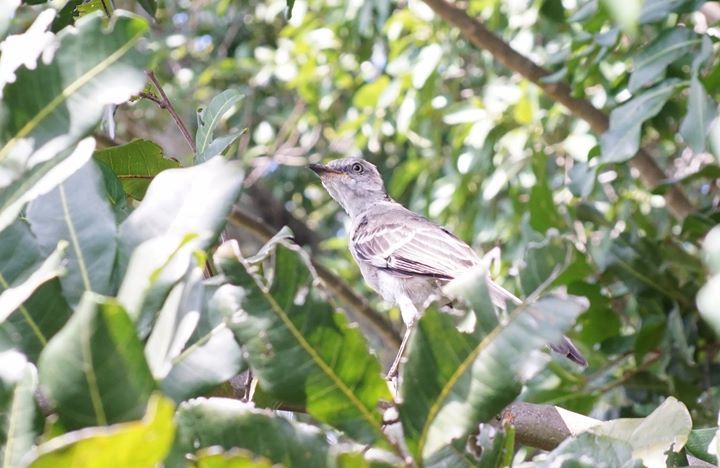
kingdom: Animalia
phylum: Chordata
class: Aves
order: Passeriformes
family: Mimidae
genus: Mimus
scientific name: Mimus polyglottos
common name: Northern mockingbird
